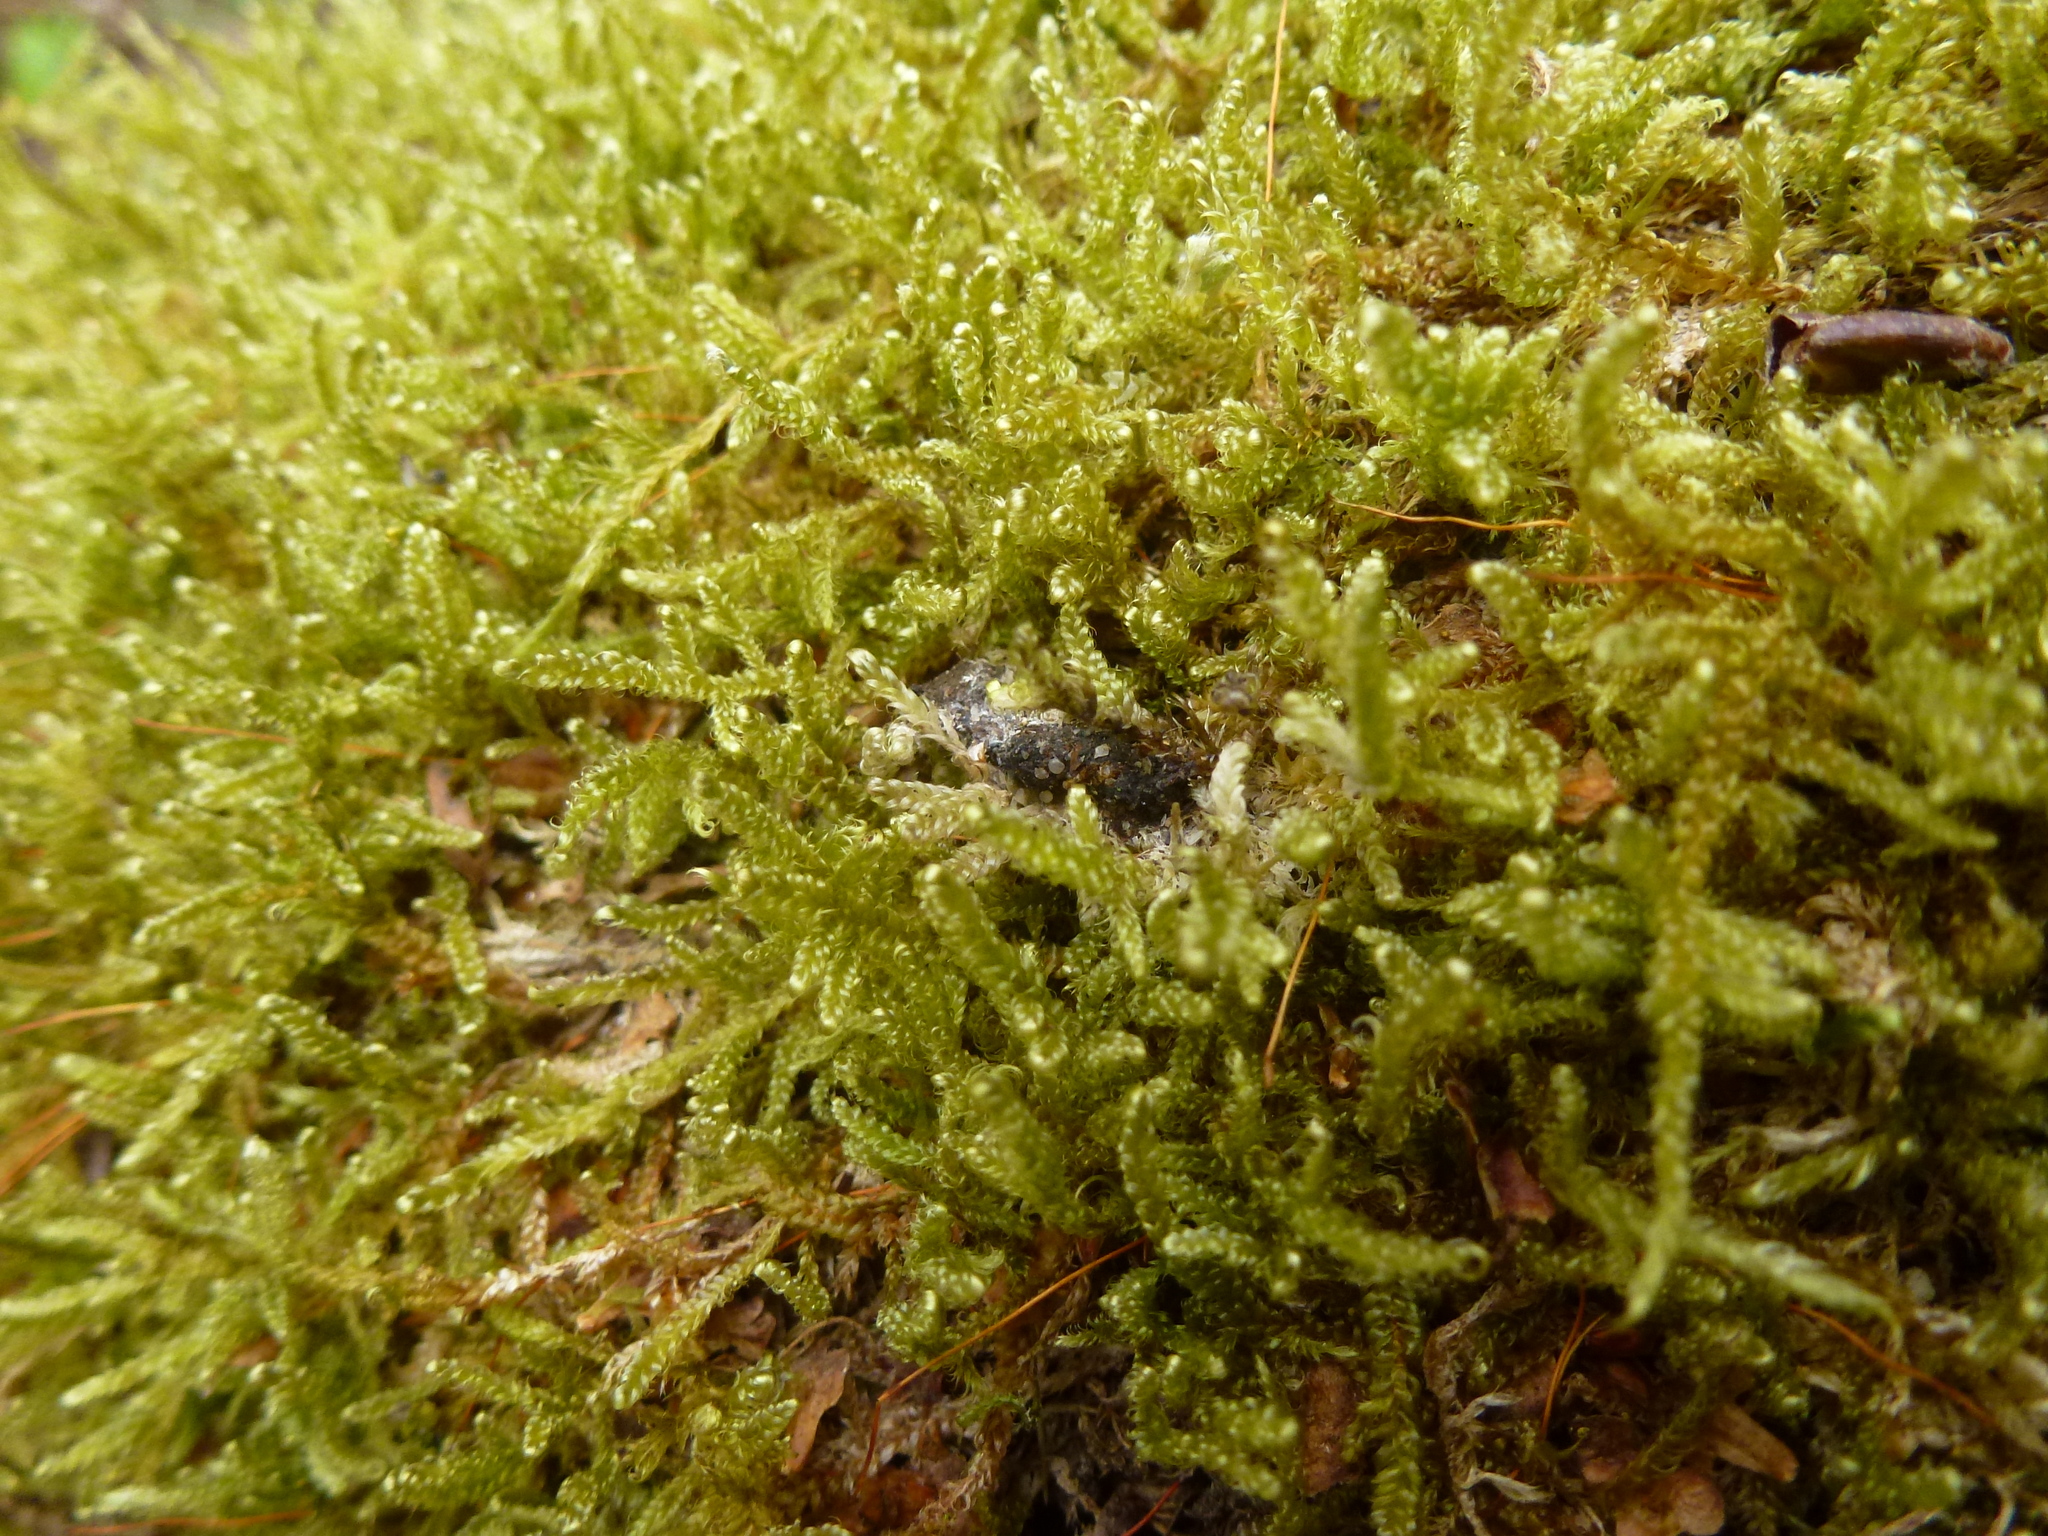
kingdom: Plantae
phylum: Bryophyta
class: Bryopsida
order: Hypnales
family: Hypnaceae
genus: Hypnum
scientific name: Hypnum cupressiforme
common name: Cypress-leaved plait-moss
